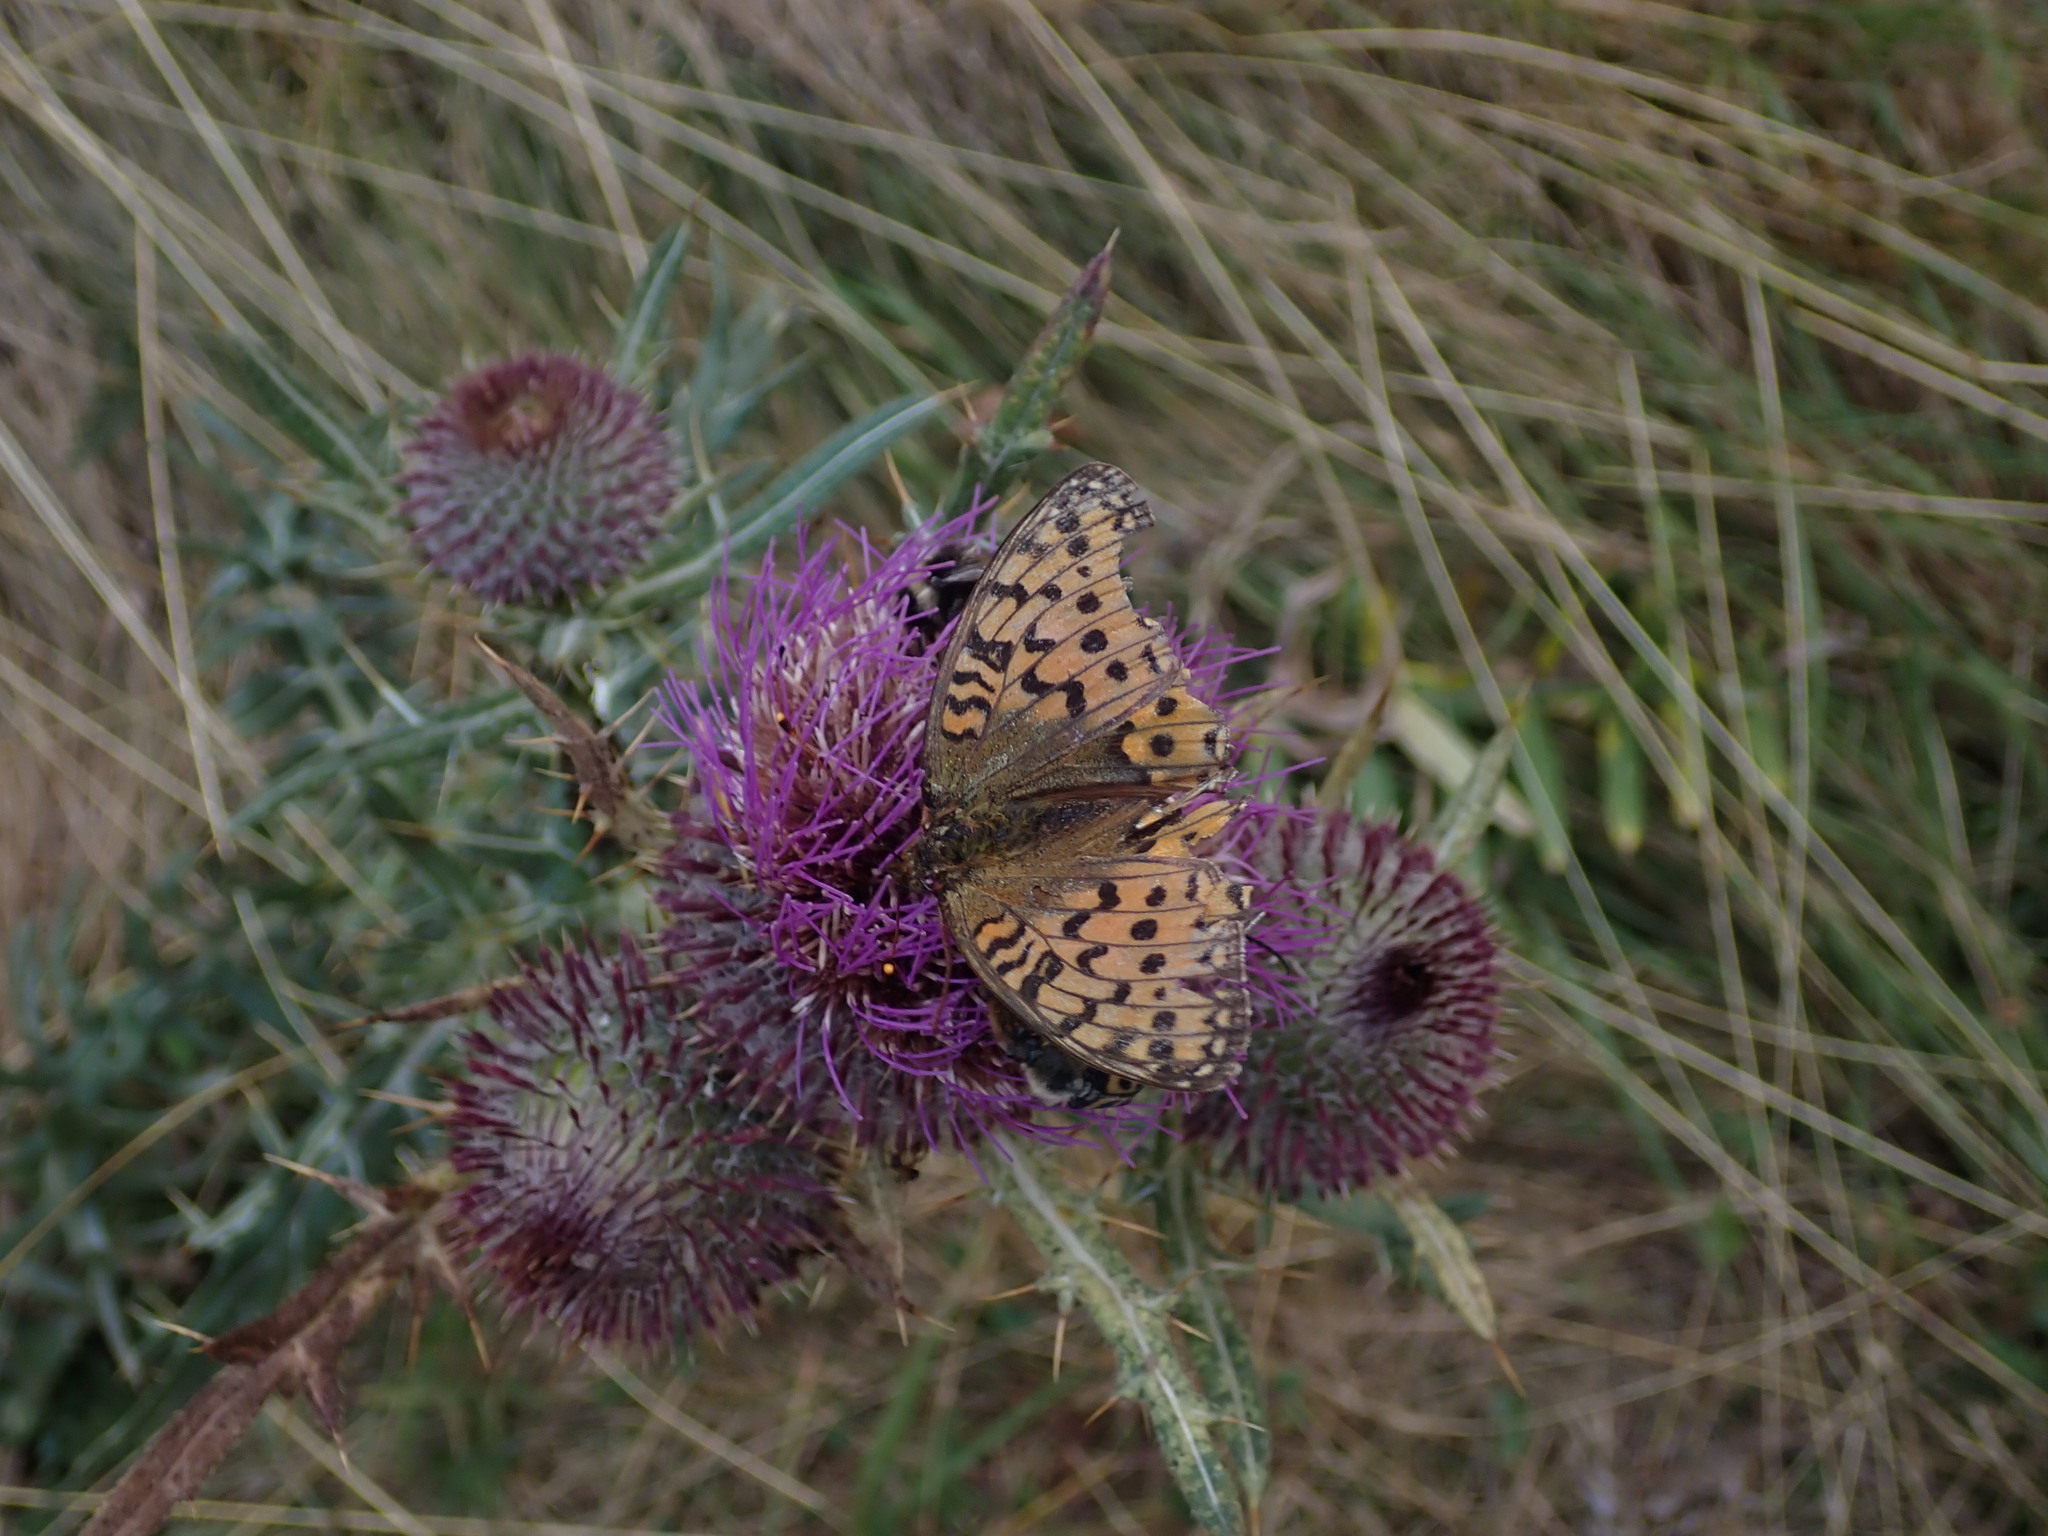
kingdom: Animalia
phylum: Arthropoda
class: Insecta
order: Lepidoptera
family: Nymphalidae
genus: Speyeria
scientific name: Speyeria aglaja
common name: Dark green fritillary
